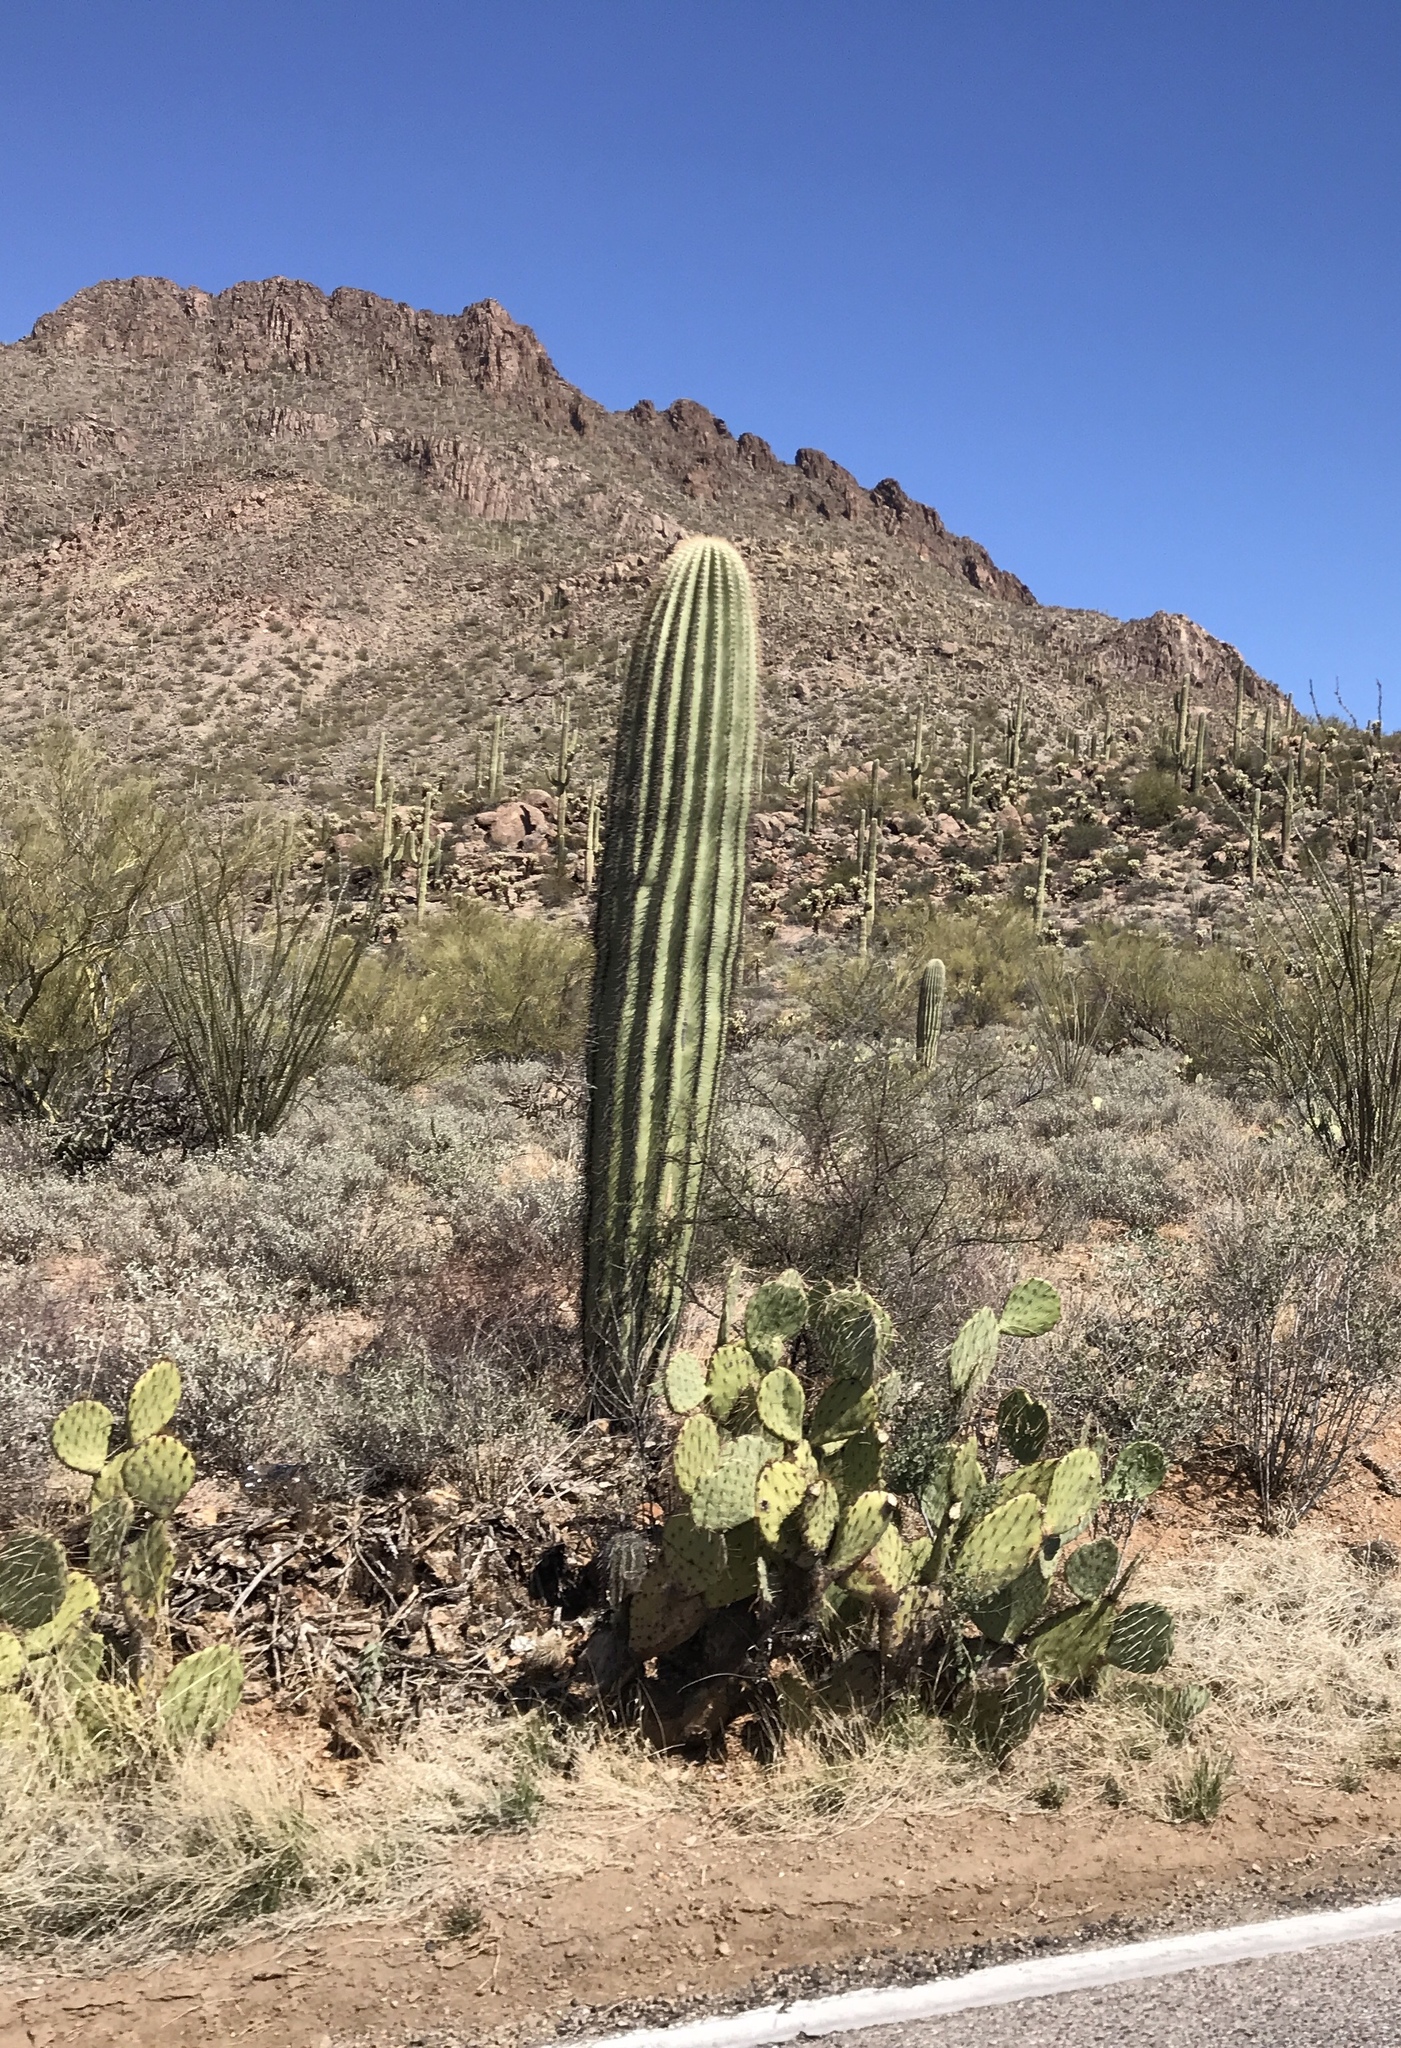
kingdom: Plantae
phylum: Tracheophyta
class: Magnoliopsida
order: Caryophyllales
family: Cactaceae
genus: Carnegiea
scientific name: Carnegiea gigantea
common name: Saguaro
